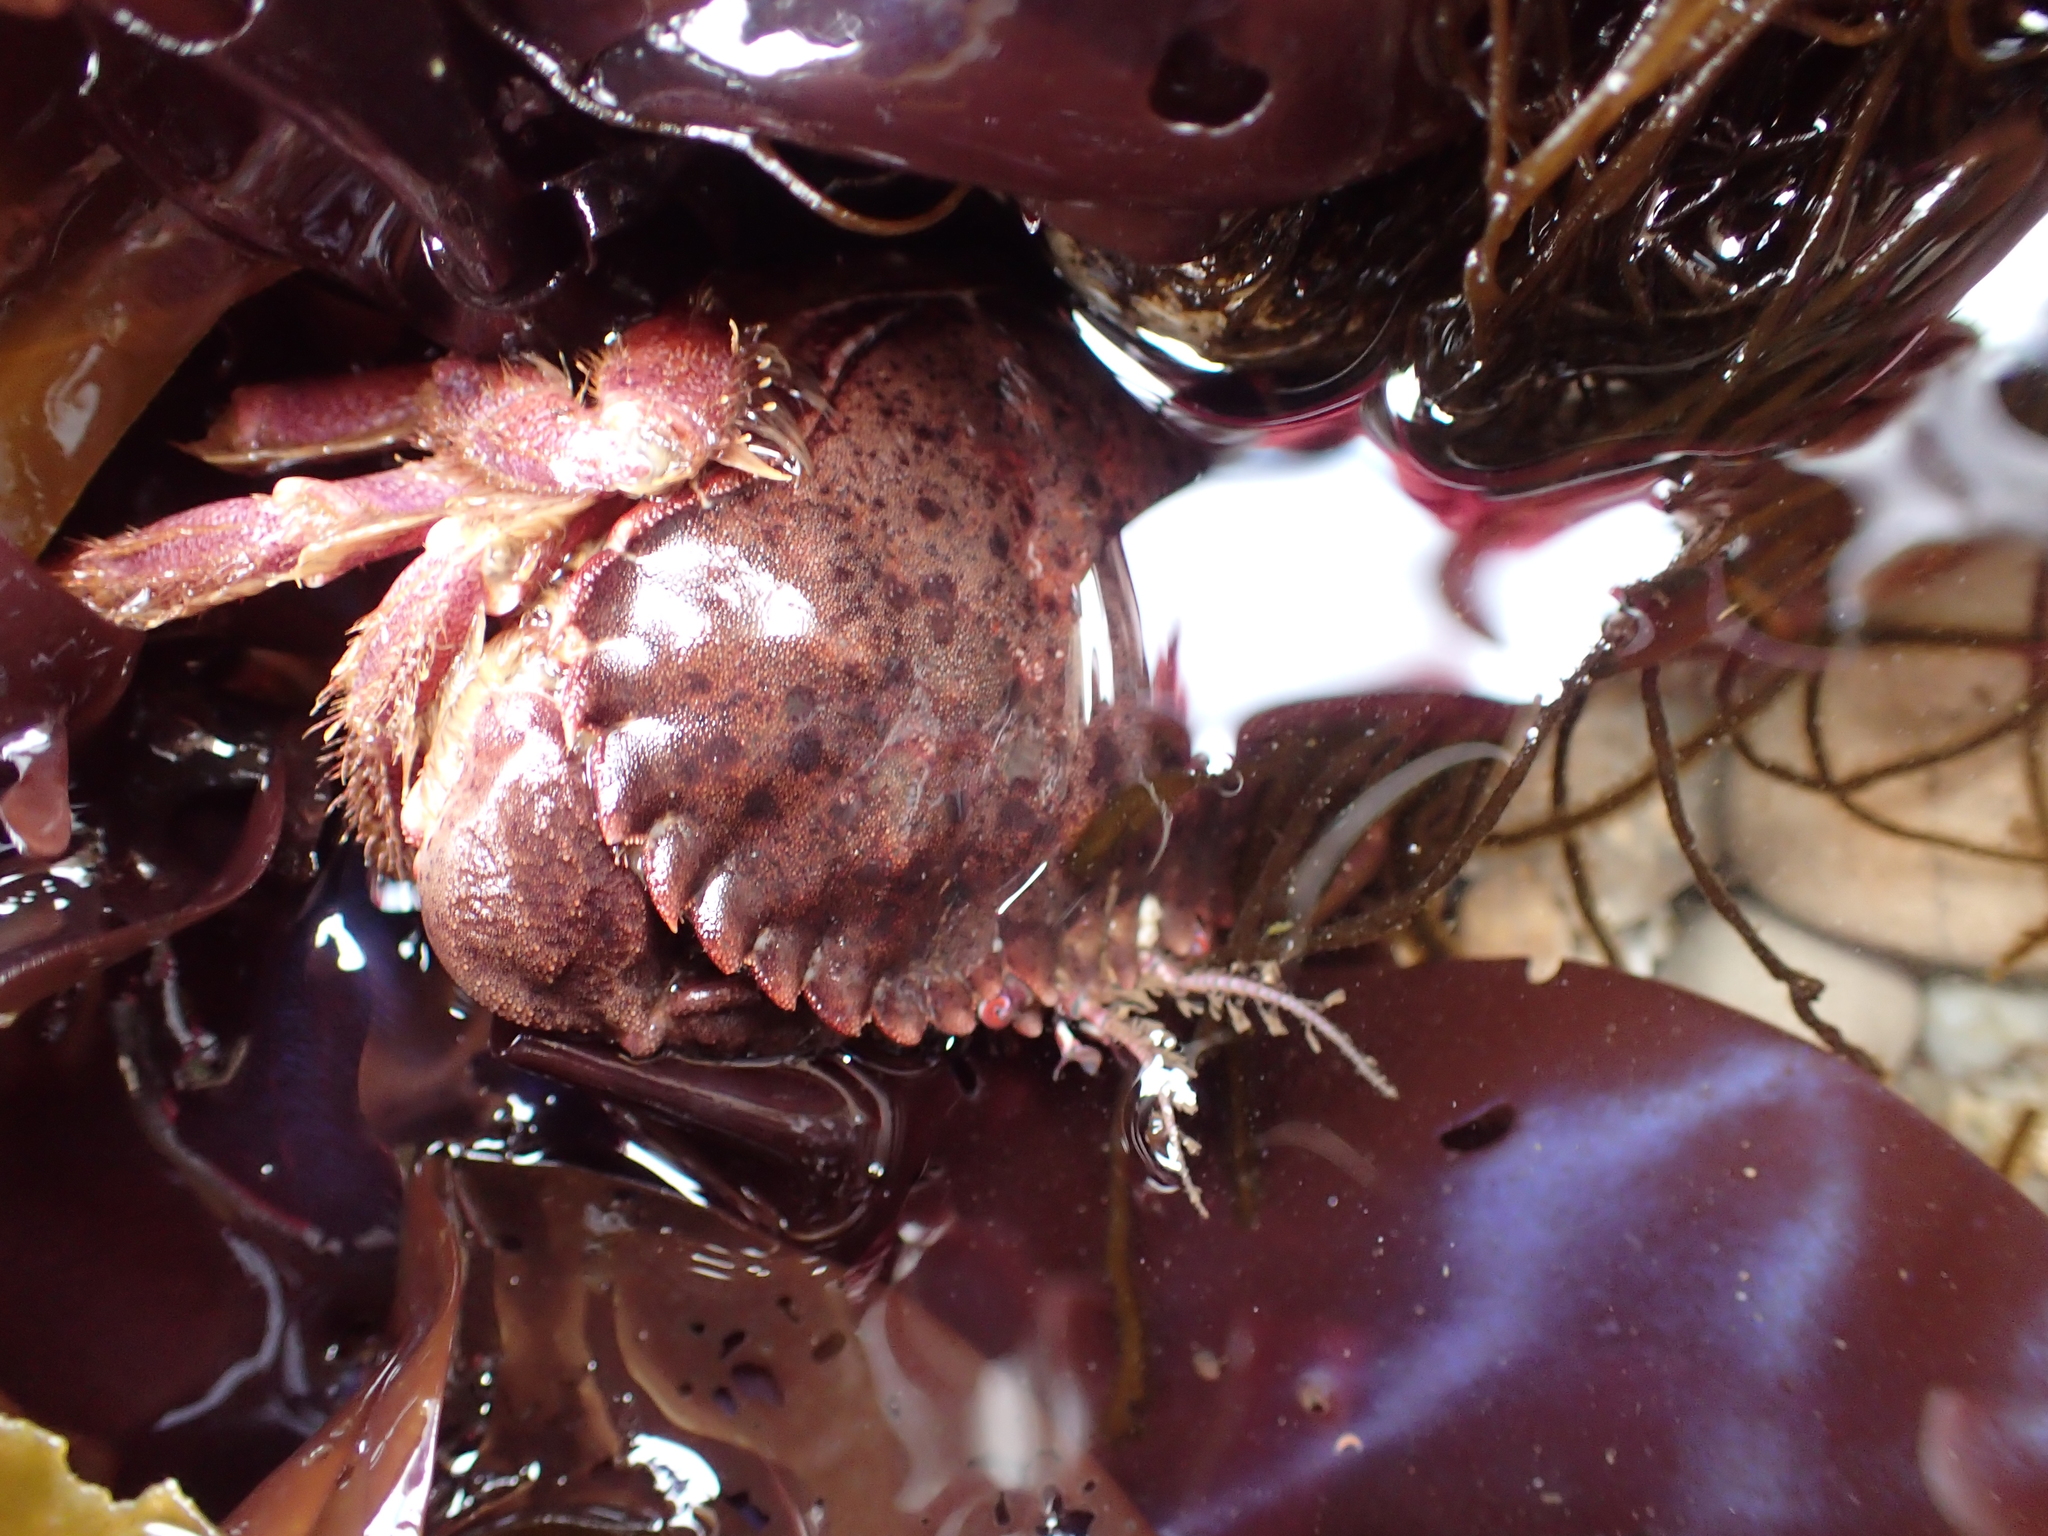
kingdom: Animalia
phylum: Arthropoda
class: Malacostraca
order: Decapoda
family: Cancridae
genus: Romaleon
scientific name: Romaleon antennarium
